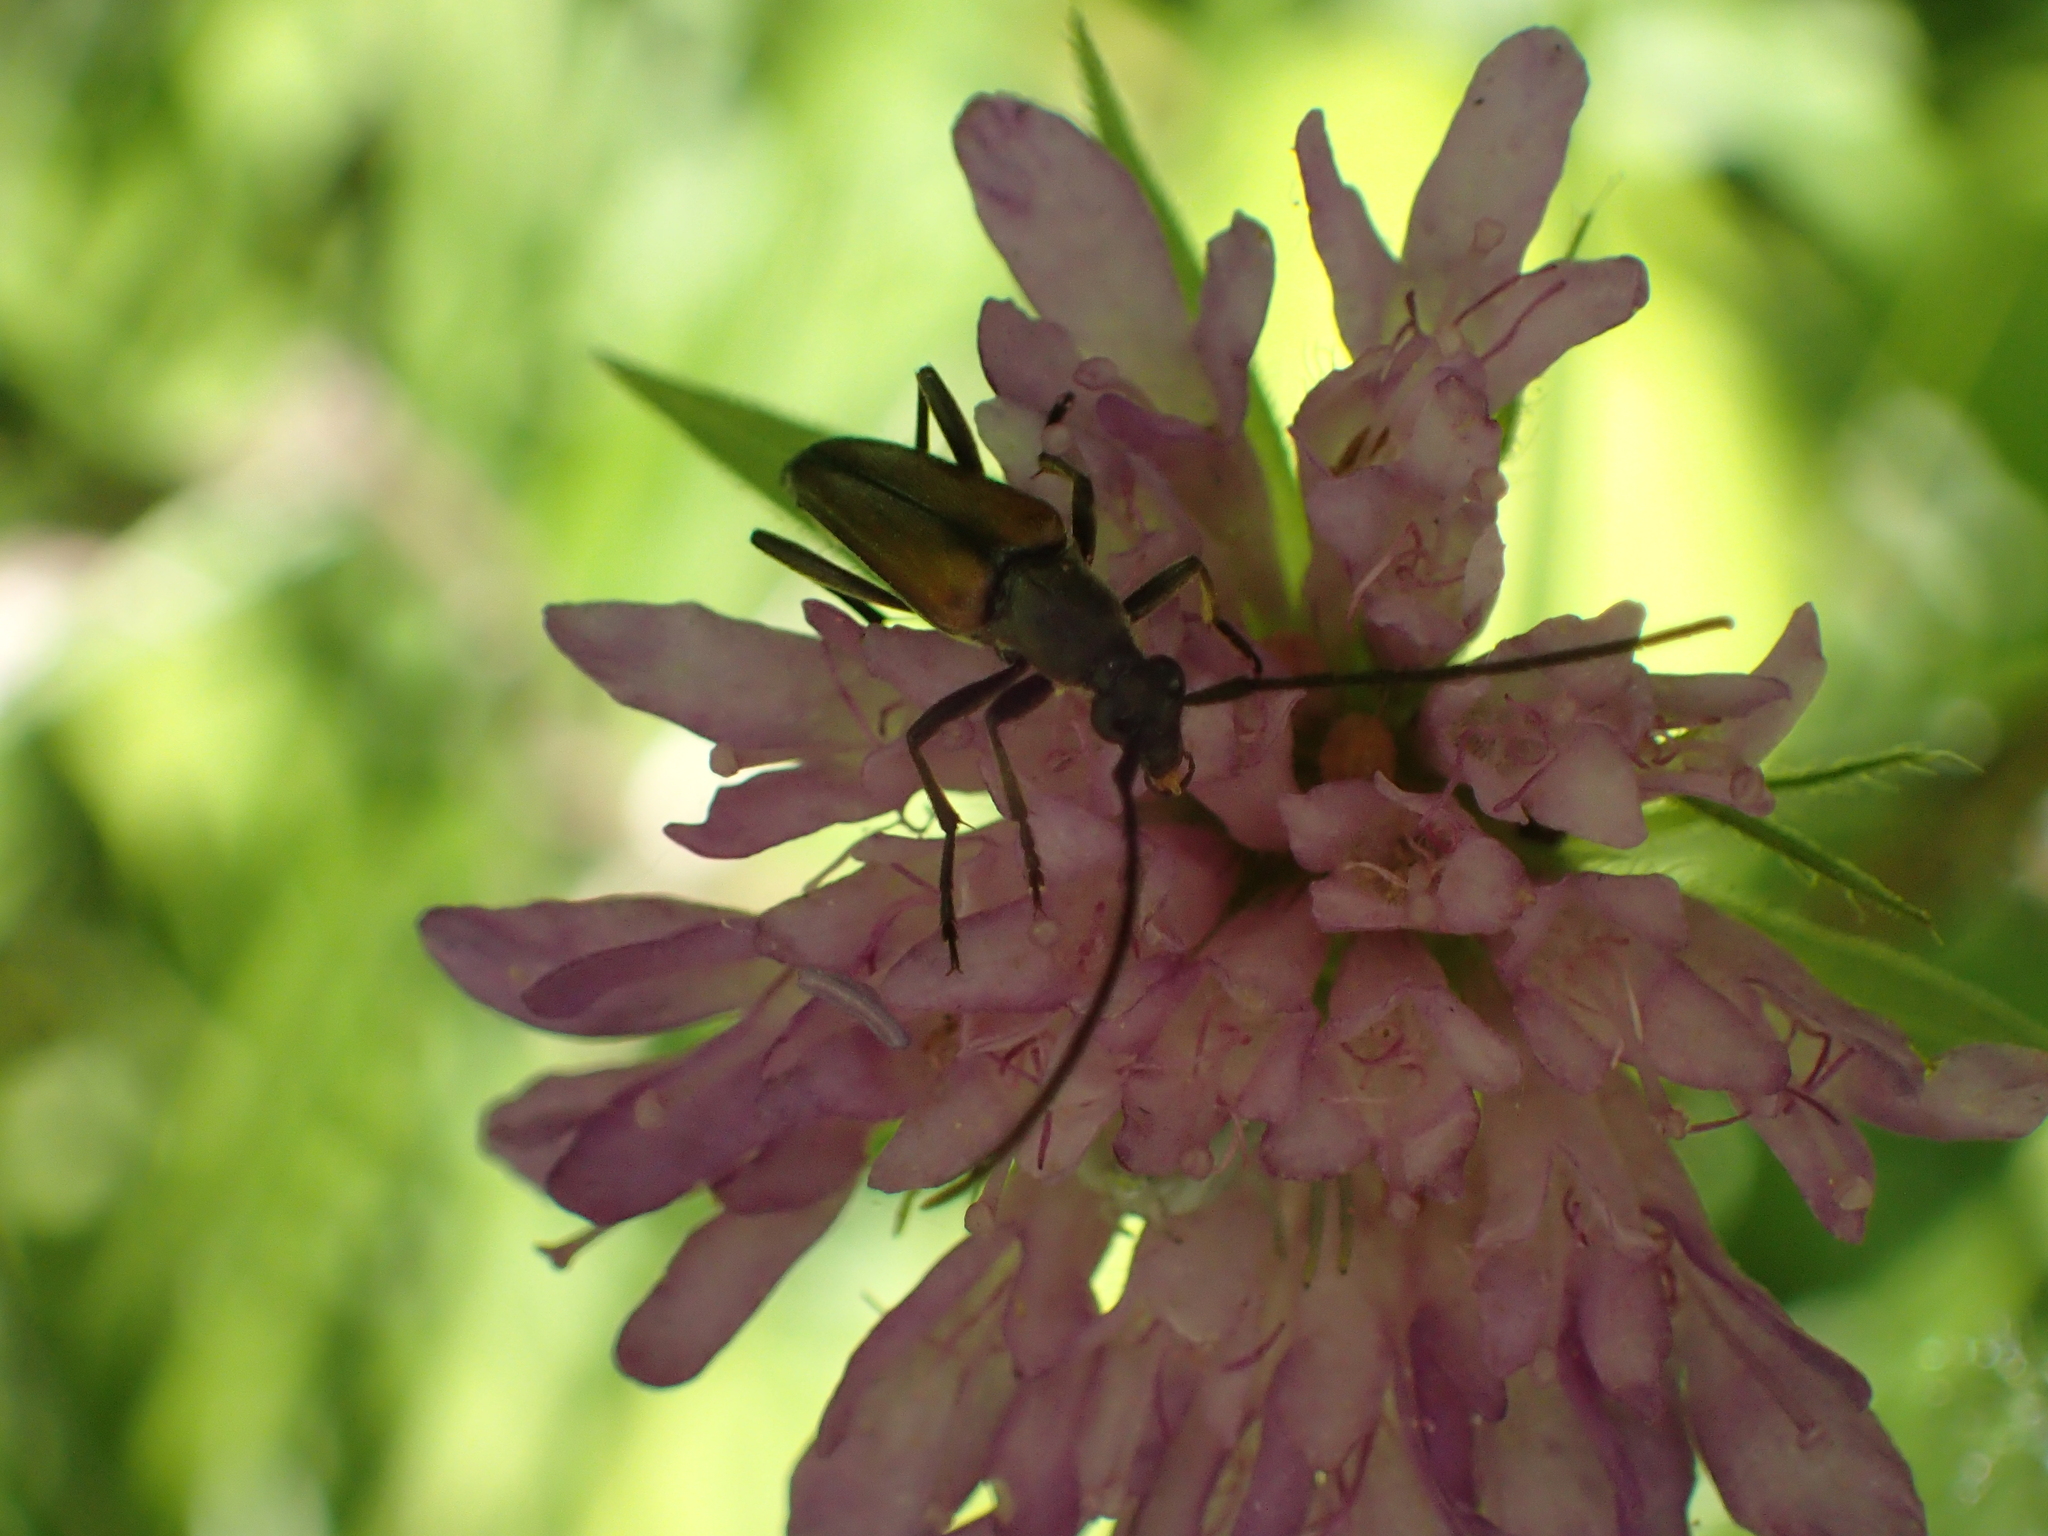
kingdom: Animalia
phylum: Arthropoda
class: Insecta
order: Coleoptera
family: Cerambycidae
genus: Stenurella
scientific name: Stenurella melanura
